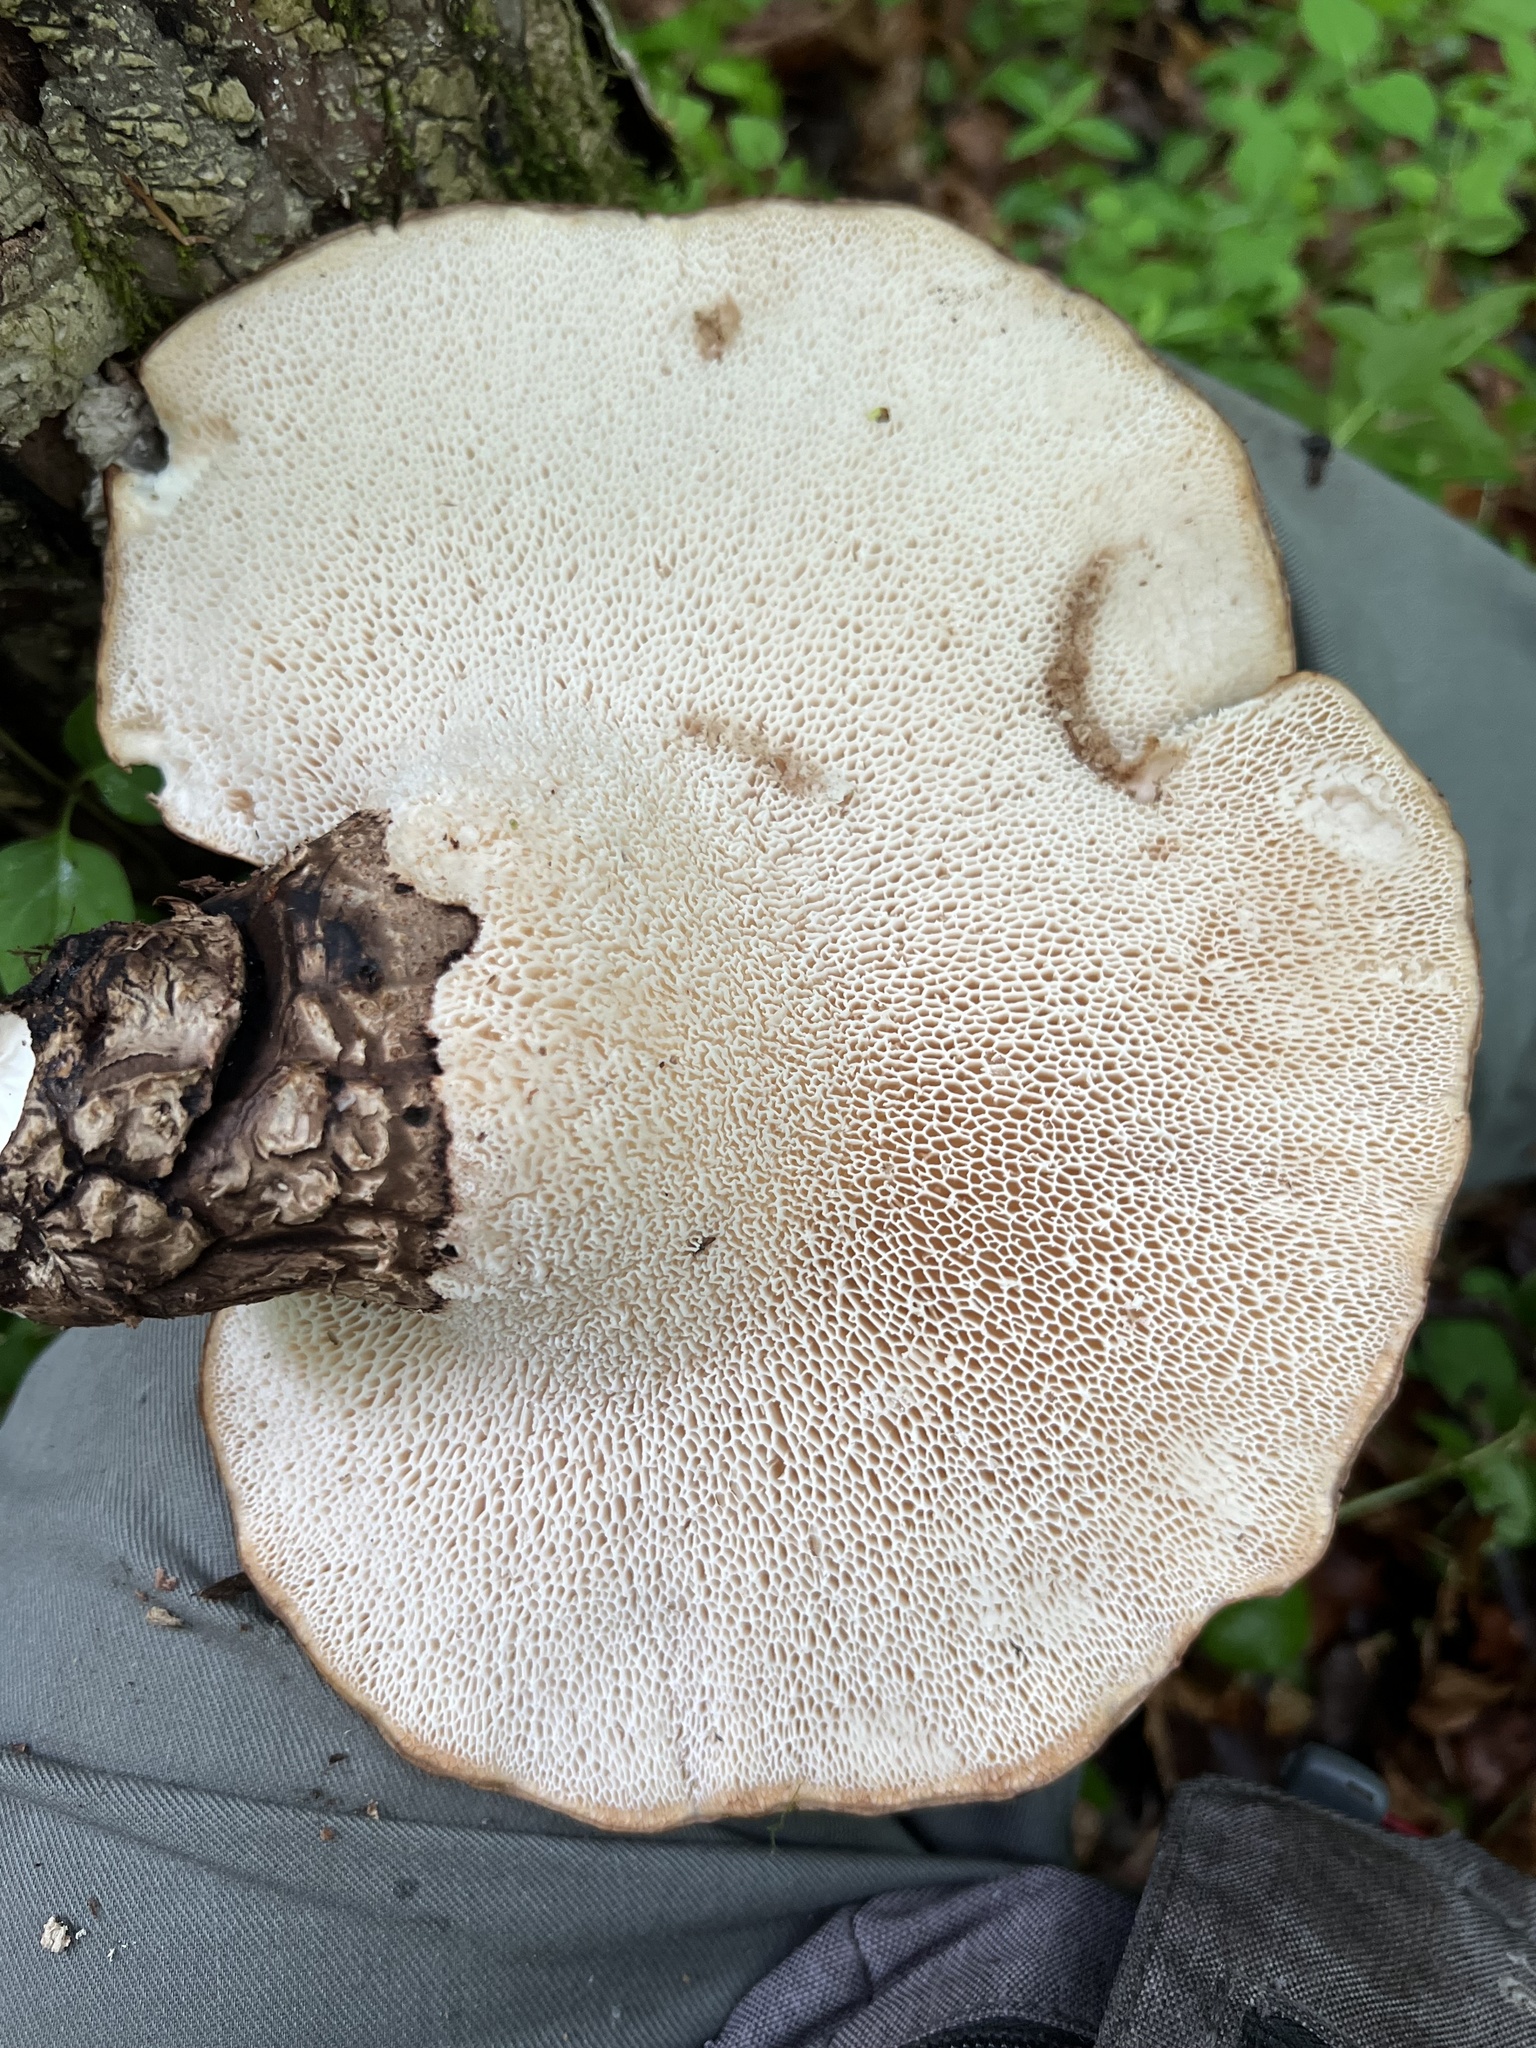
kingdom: Fungi
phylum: Basidiomycota
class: Agaricomycetes
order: Polyporales
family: Polyporaceae
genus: Cerioporus
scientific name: Cerioporus squamosus
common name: Dryad's saddle
